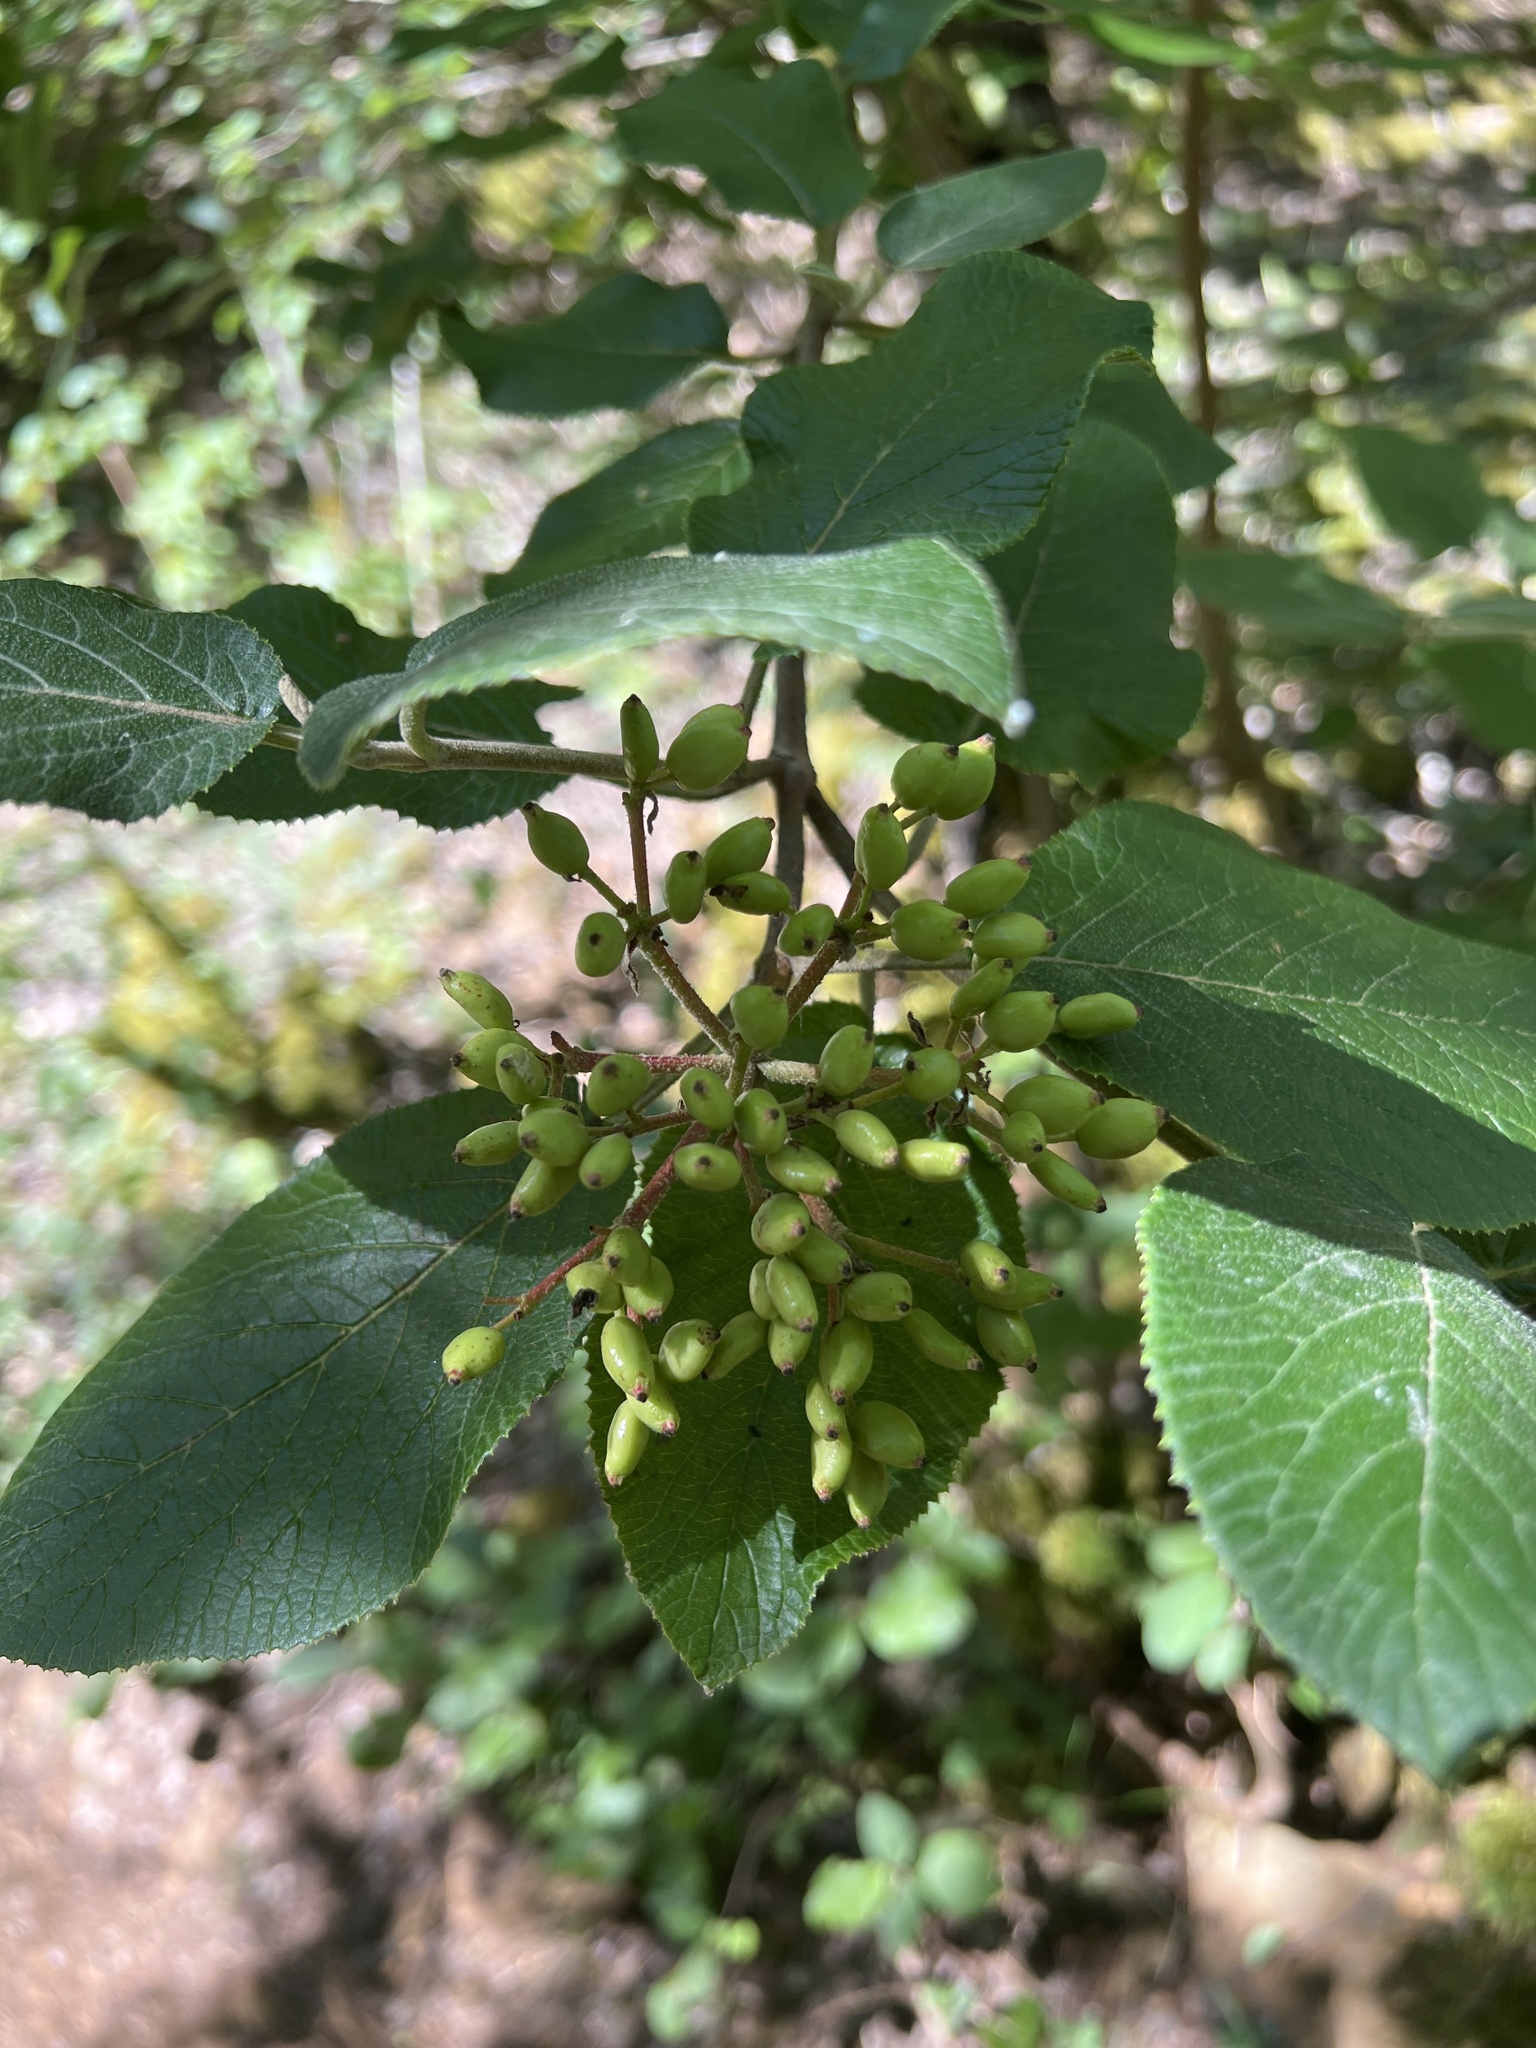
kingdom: Plantae
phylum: Tracheophyta
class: Magnoliopsida
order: Dipsacales
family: Viburnaceae
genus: Viburnum
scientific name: Viburnum lantana
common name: Wayfaring tree
